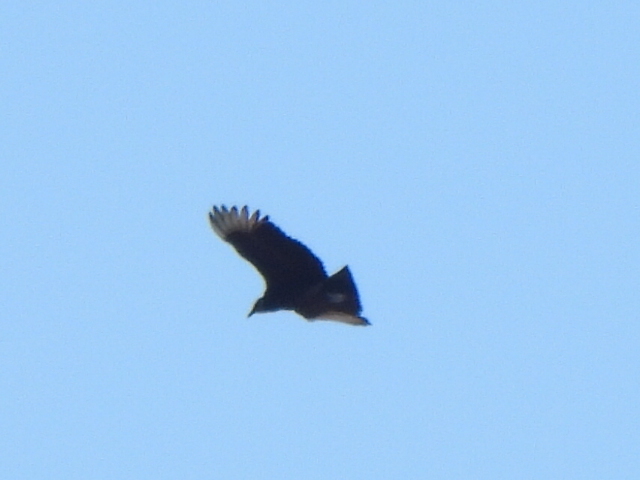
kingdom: Animalia
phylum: Chordata
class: Aves
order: Accipitriformes
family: Cathartidae
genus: Coragyps
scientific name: Coragyps atratus
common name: Black vulture
